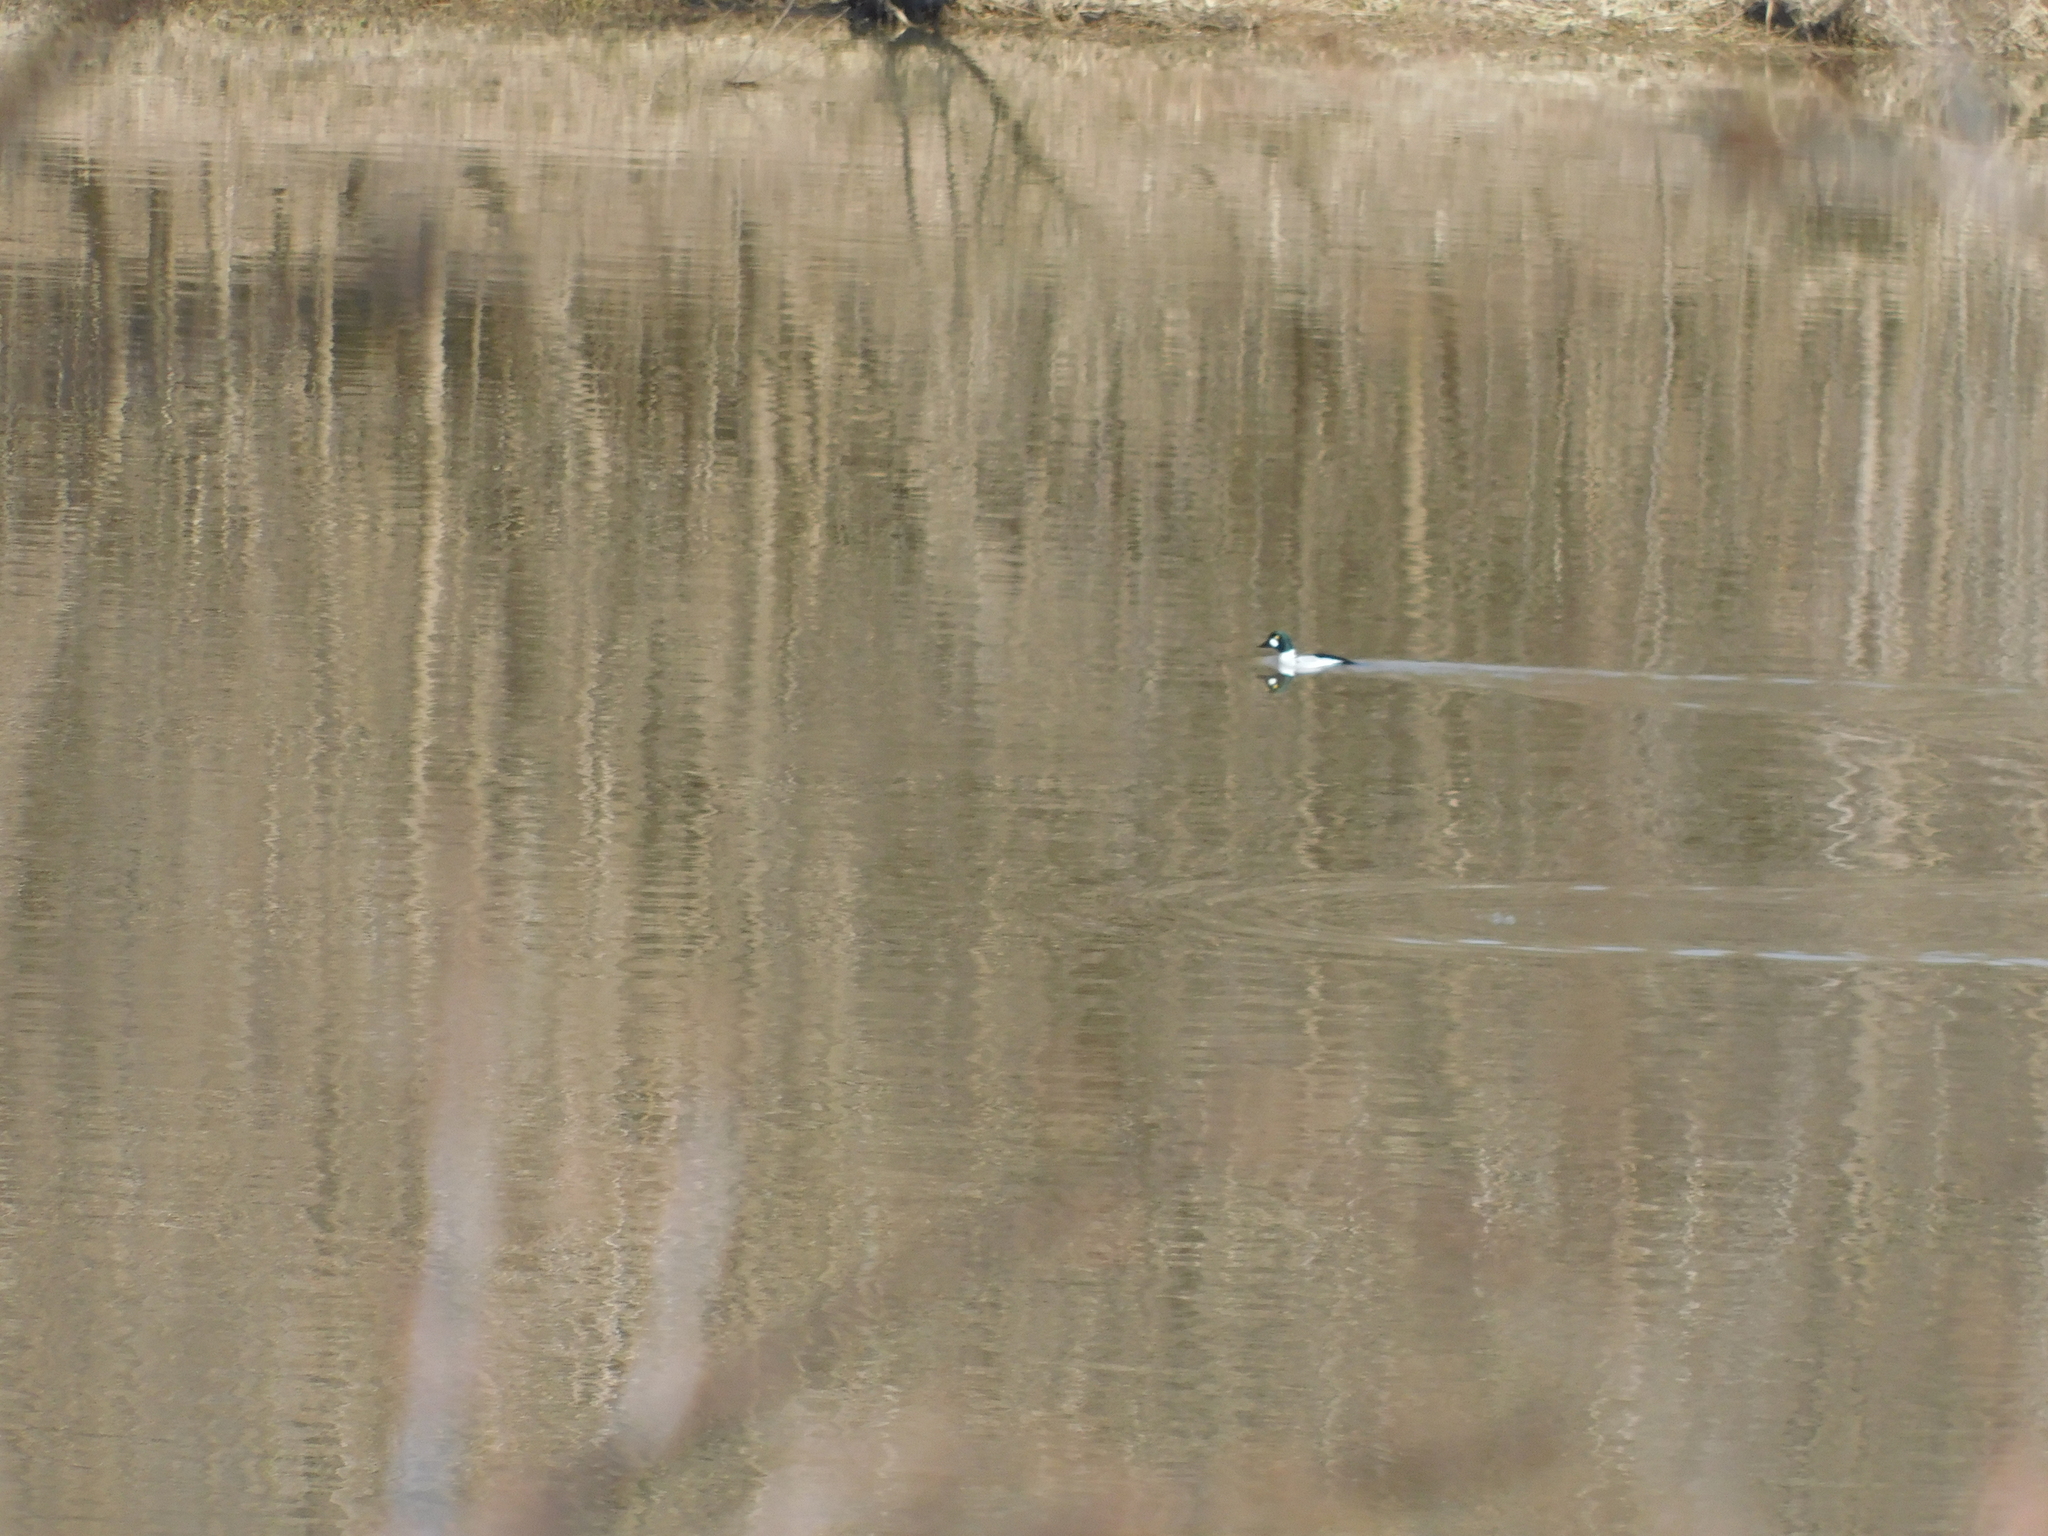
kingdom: Animalia
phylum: Chordata
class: Aves
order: Anseriformes
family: Anatidae
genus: Bucephala
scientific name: Bucephala clangula
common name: Common goldeneye
